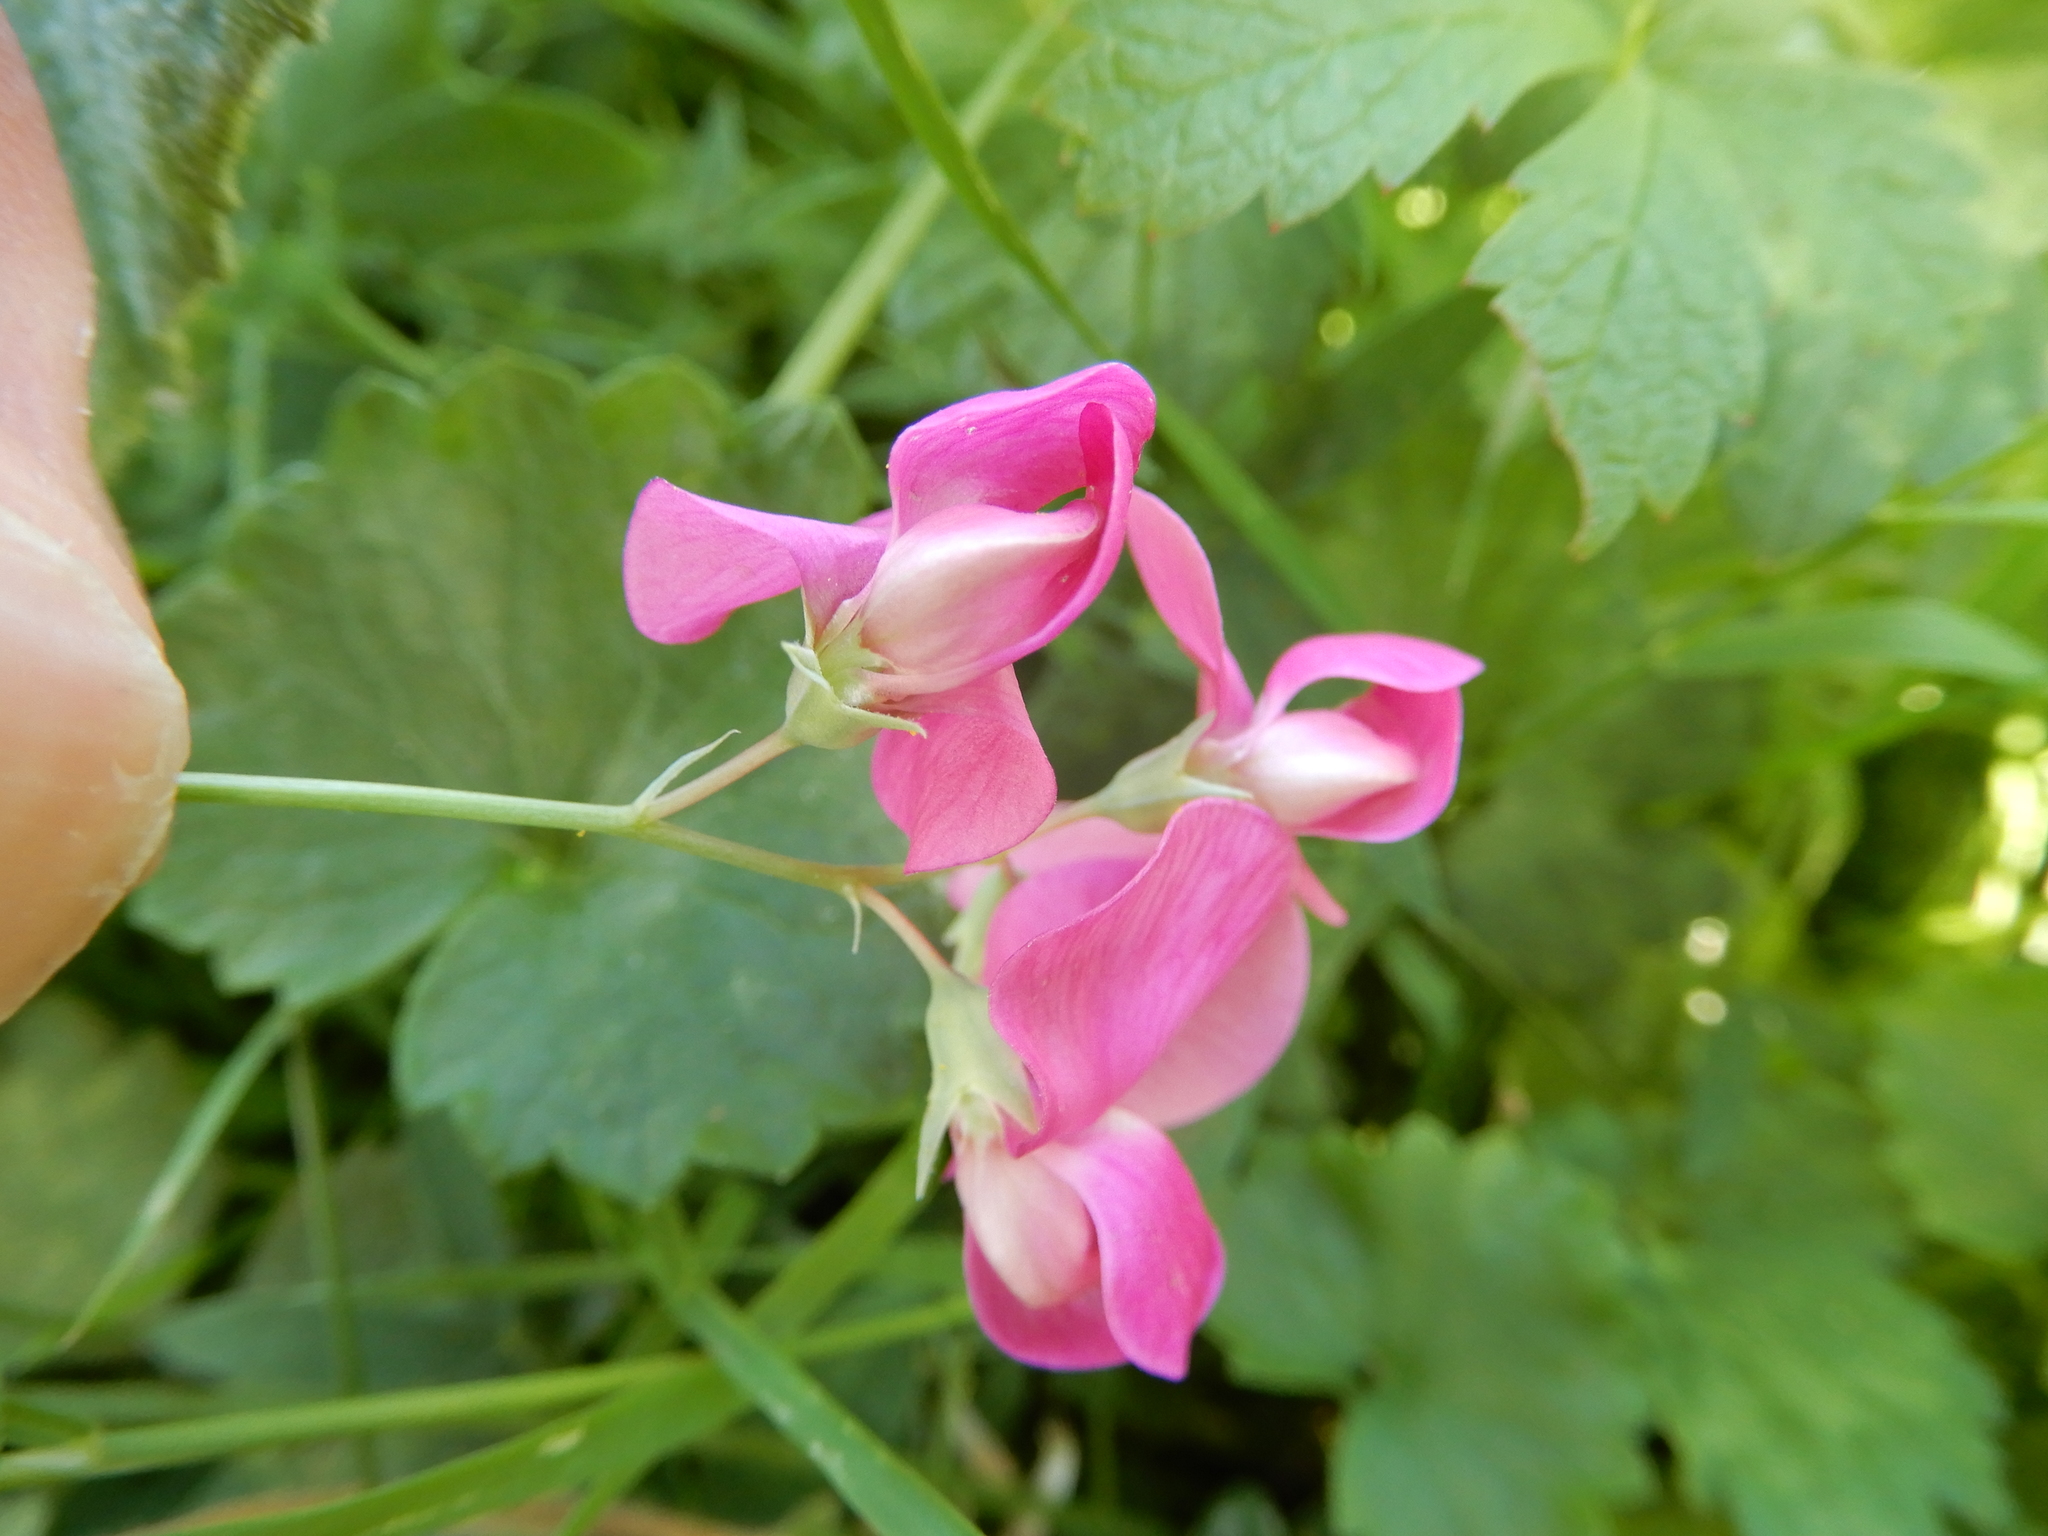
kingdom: Plantae
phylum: Tracheophyta
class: Magnoliopsida
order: Fabales
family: Fabaceae
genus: Lathyrus
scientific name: Lathyrus latifolius
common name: Perennial pea
